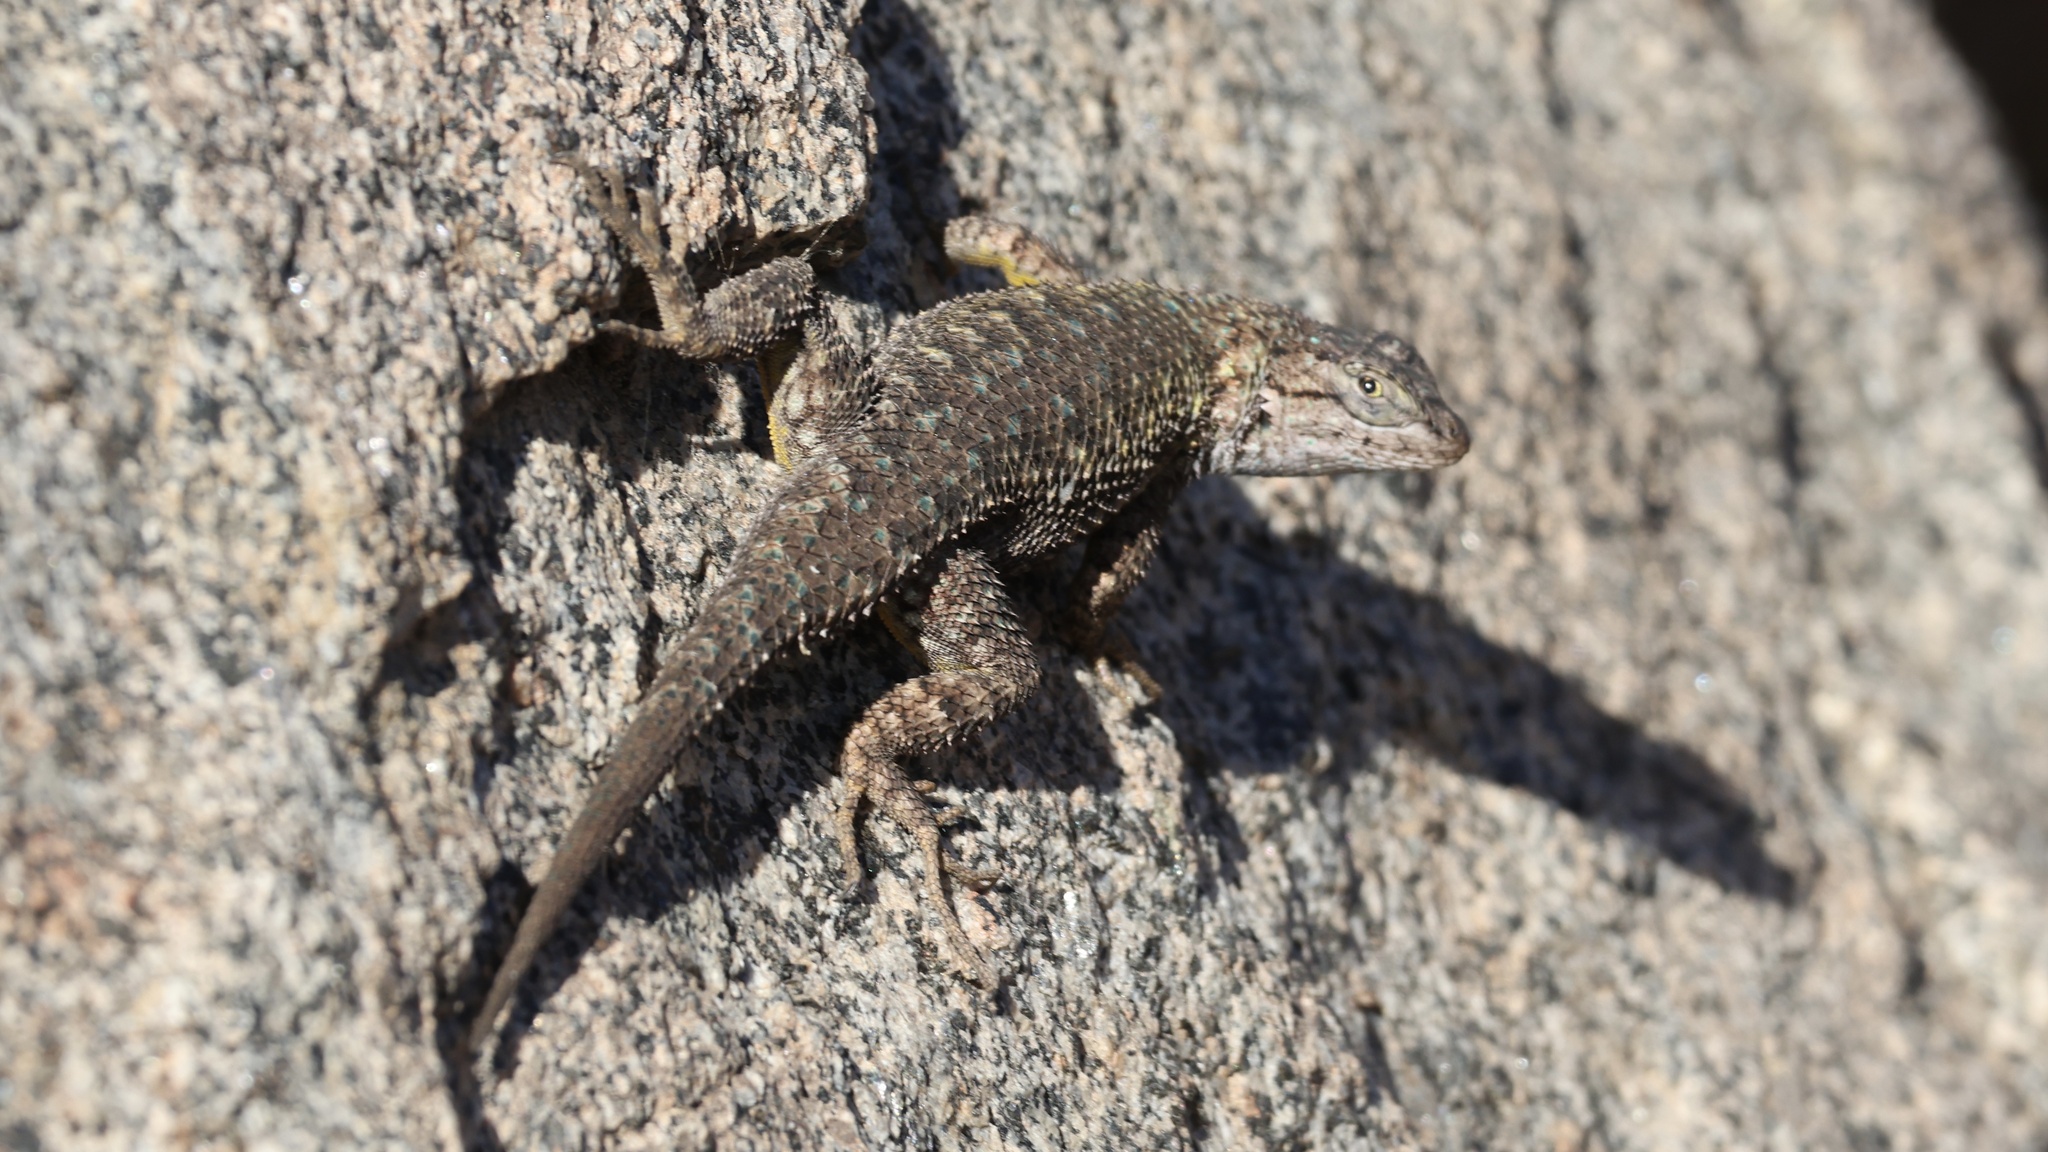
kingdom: Animalia
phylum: Chordata
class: Squamata
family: Phrynosomatidae
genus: Sceloporus
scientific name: Sceloporus occidentalis
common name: Western fence lizard
